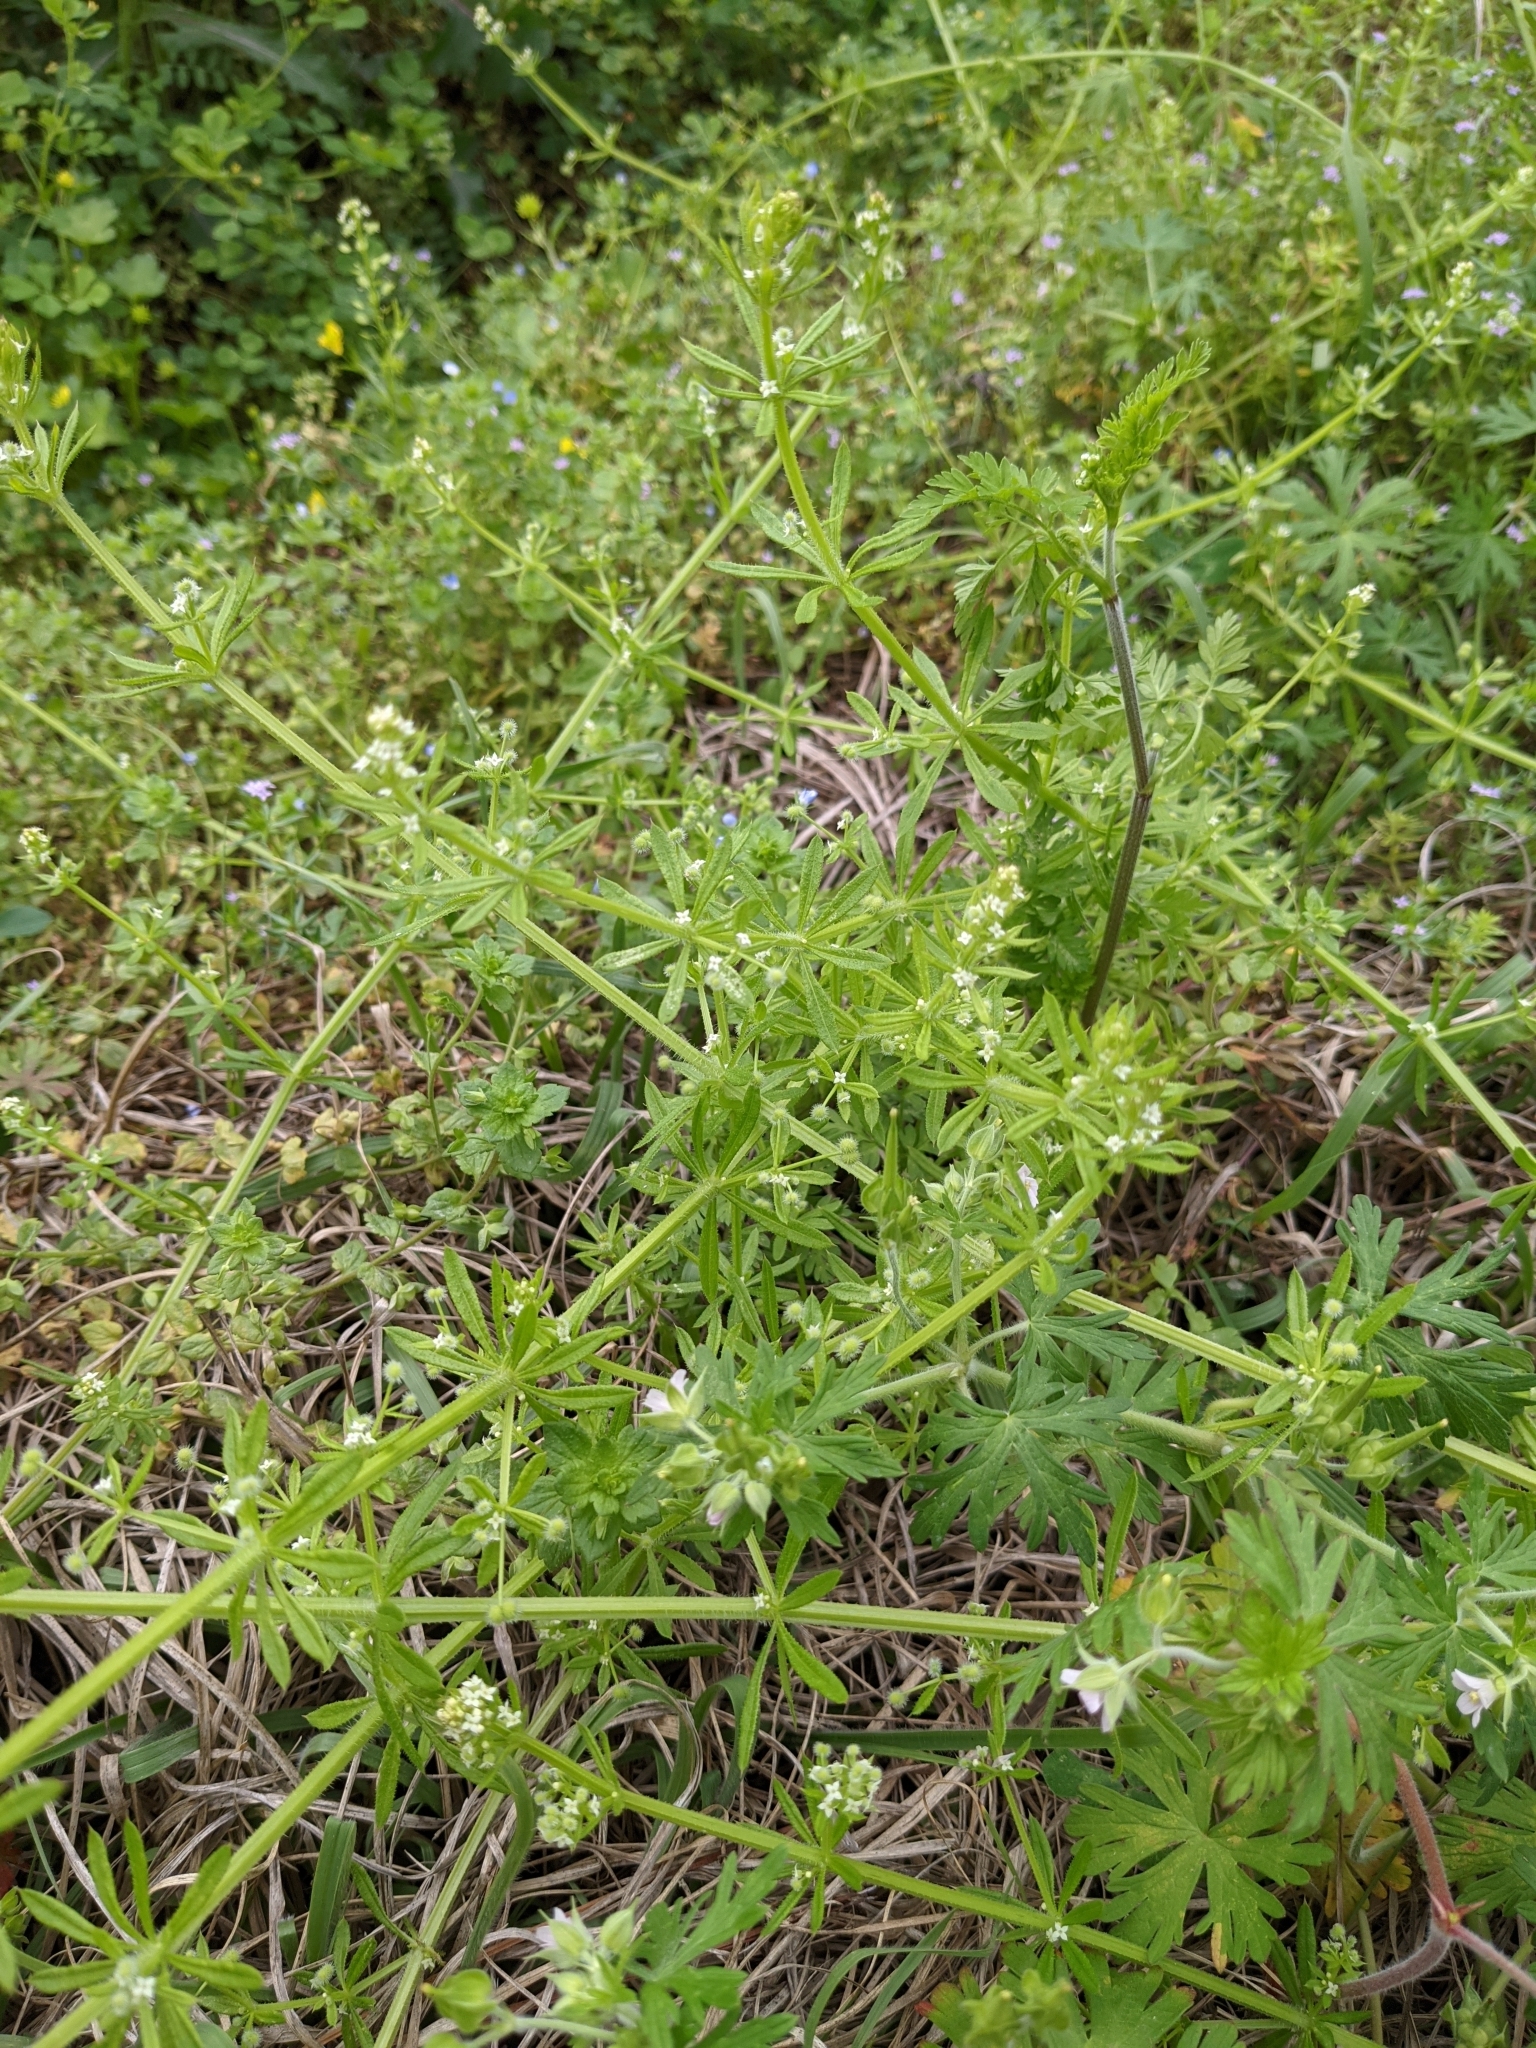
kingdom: Plantae
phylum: Tracheophyta
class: Magnoliopsida
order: Gentianales
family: Rubiaceae
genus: Galium
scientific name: Galium aparine
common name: Cleavers
